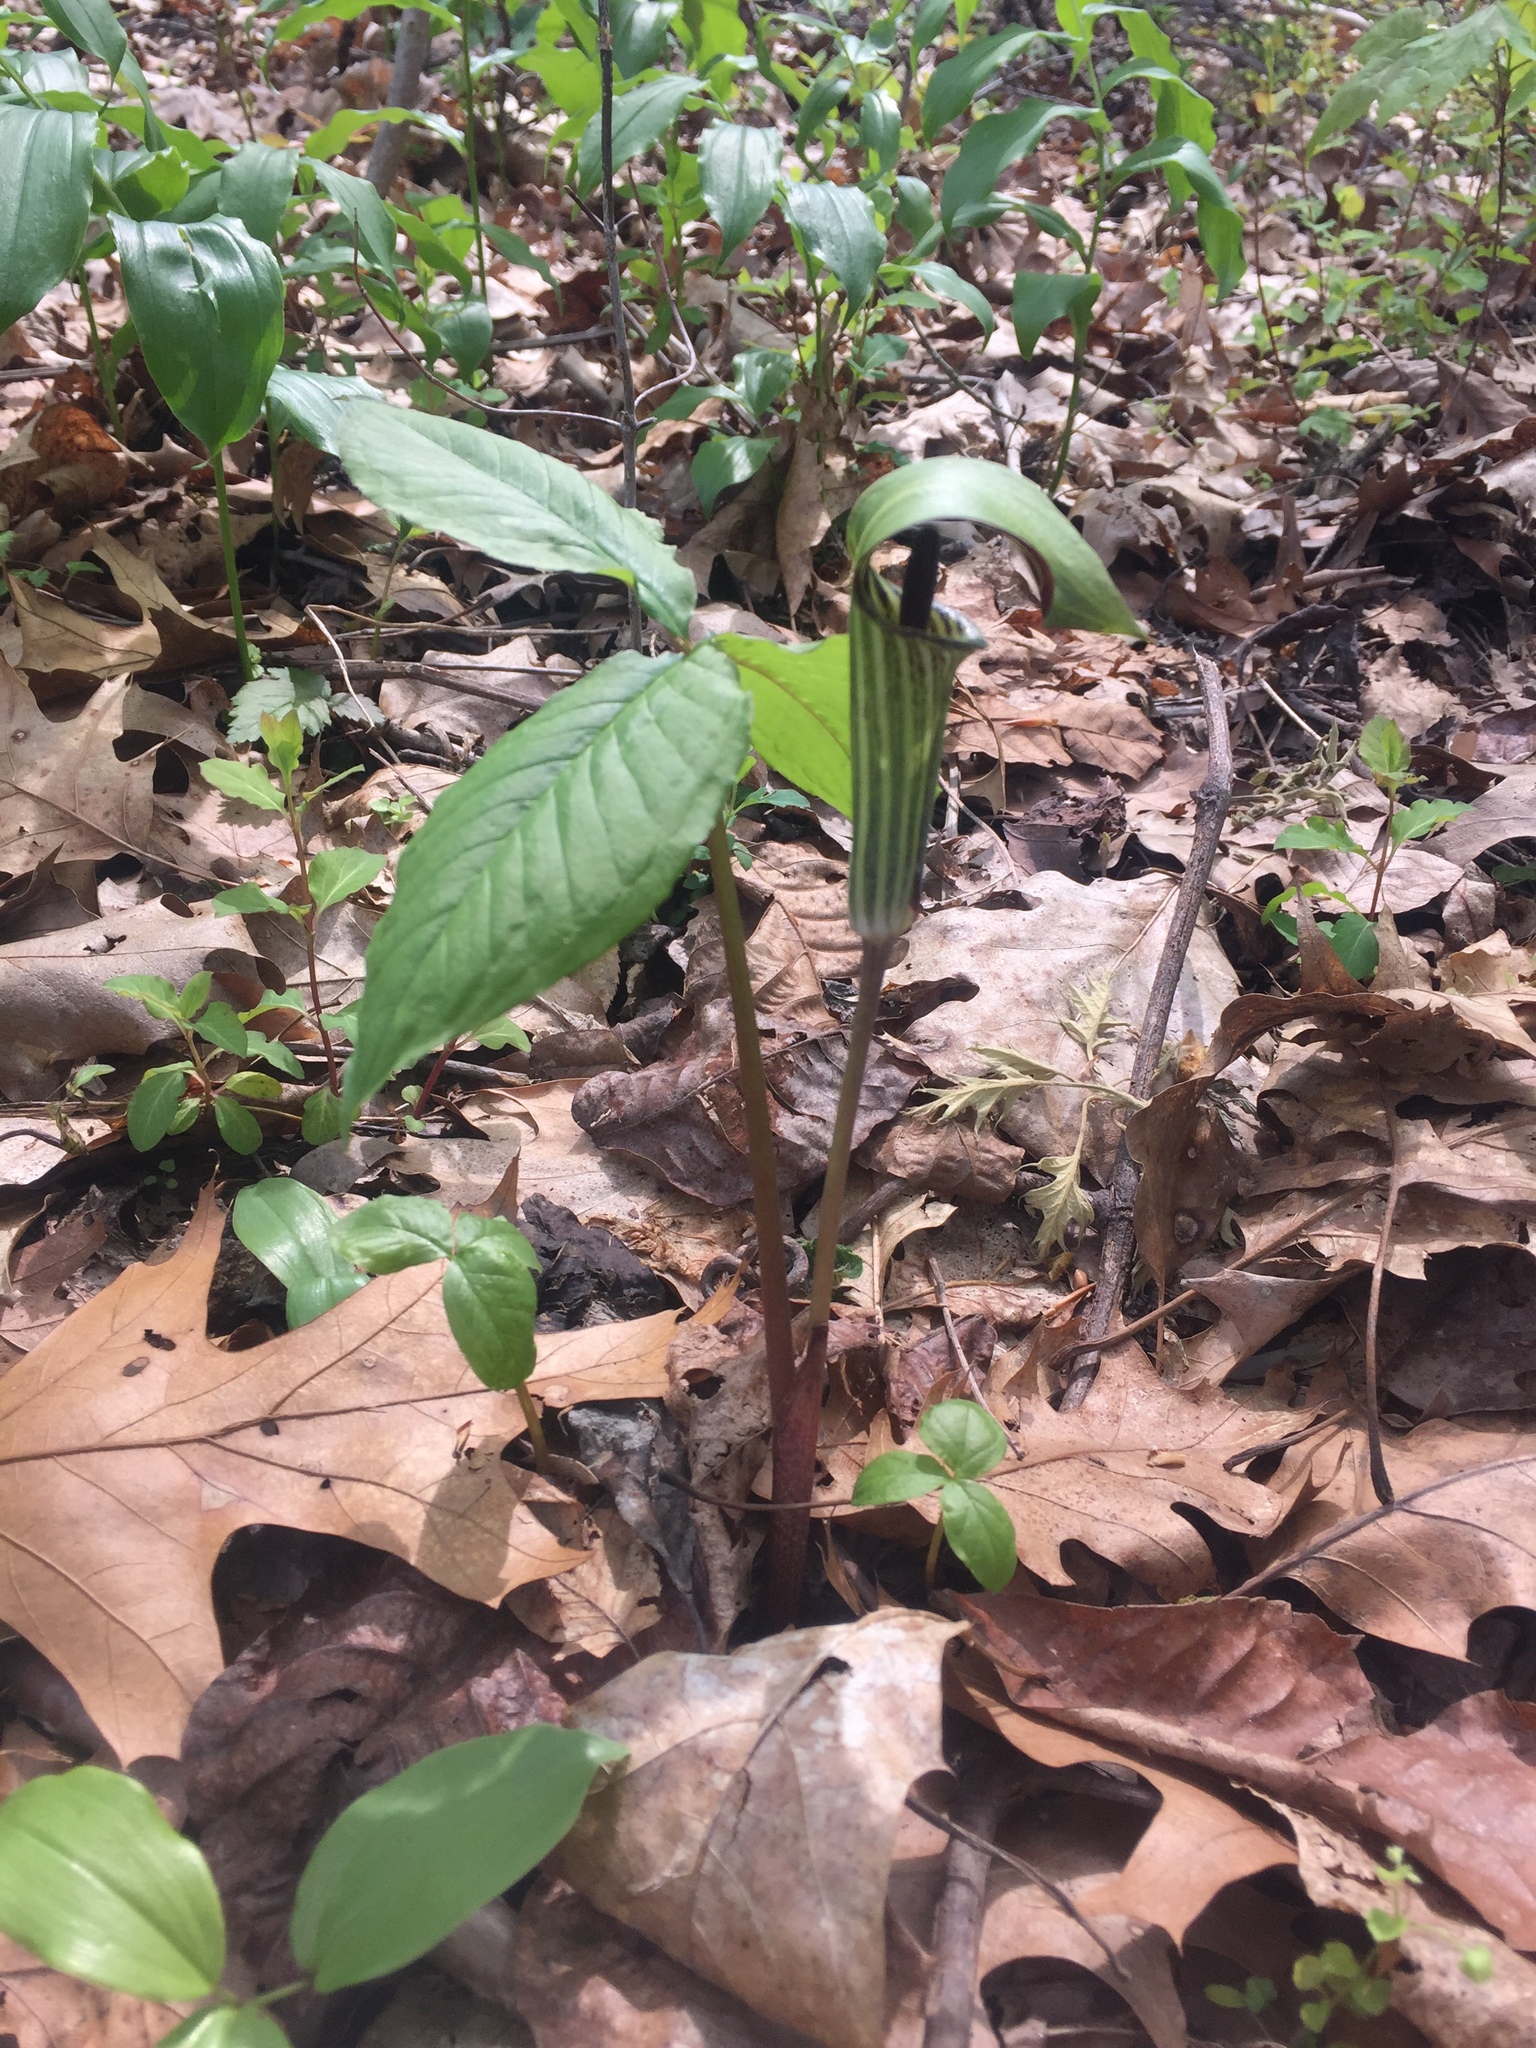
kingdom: Plantae
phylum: Tracheophyta
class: Liliopsida
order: Alismatales
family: Araceae
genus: Arisaema
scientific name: Arisaema triphyllum
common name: Jack-in-the-pulpit
